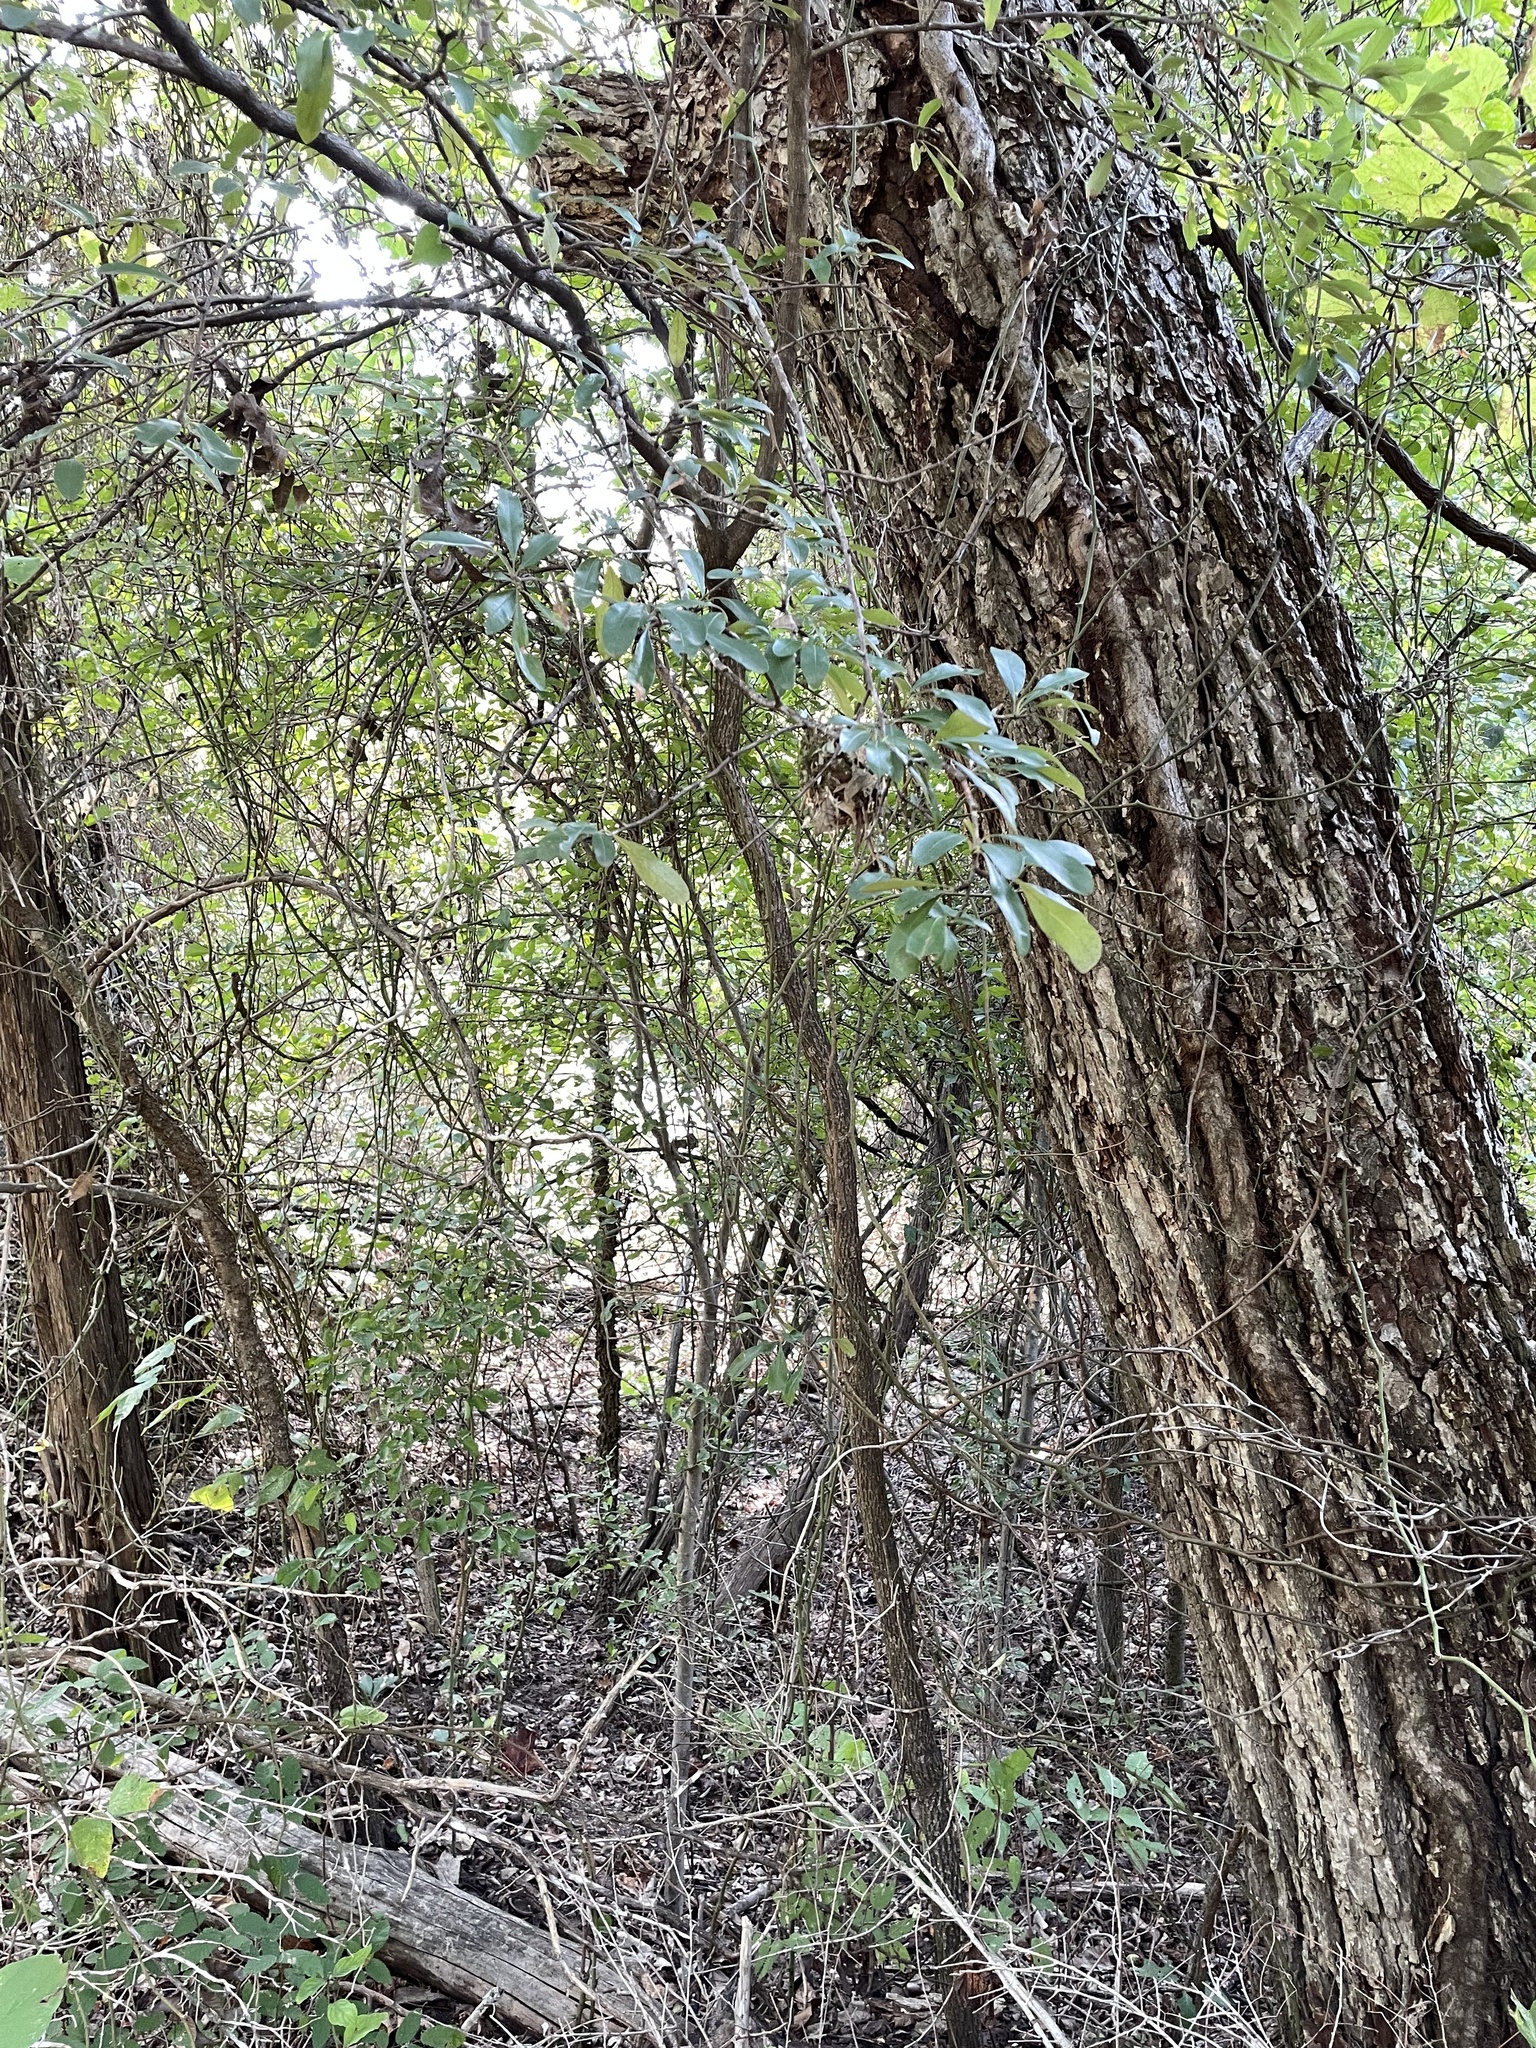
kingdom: Plantae
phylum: Tracheophyta
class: Magnoliopsida
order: Ericales
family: Sapotaceae
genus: Sideroxylon
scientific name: Sideroxylon lanuginosum
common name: Chittamwood
